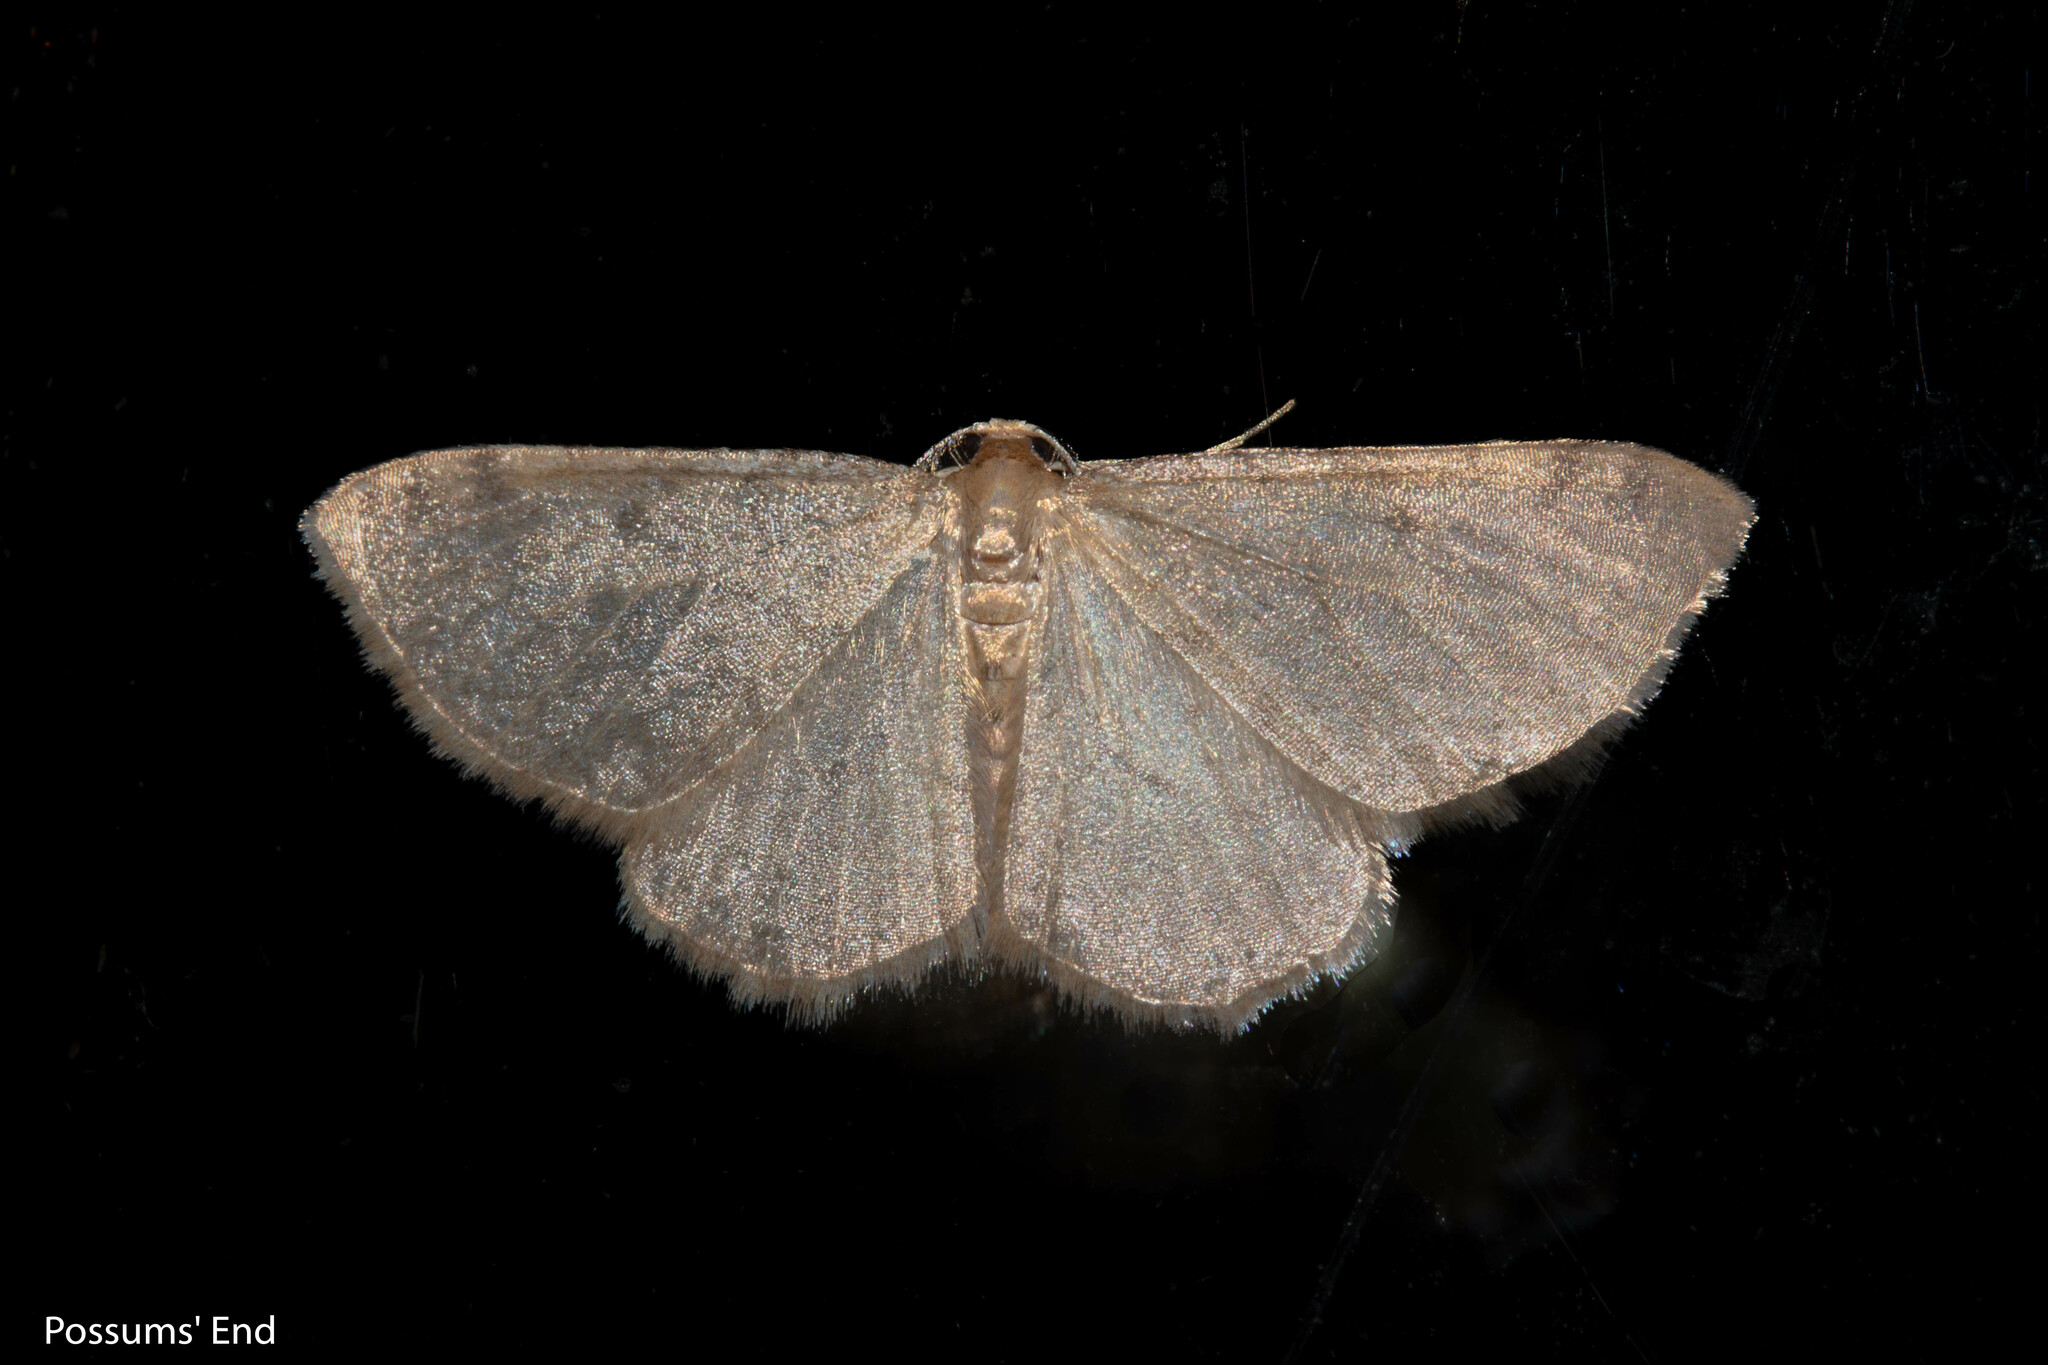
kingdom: Animalia
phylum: Arthropoda
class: Insecta
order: Lepidoptera
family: Geometridae
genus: Epiphryne
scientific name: Epiphryne undosata
